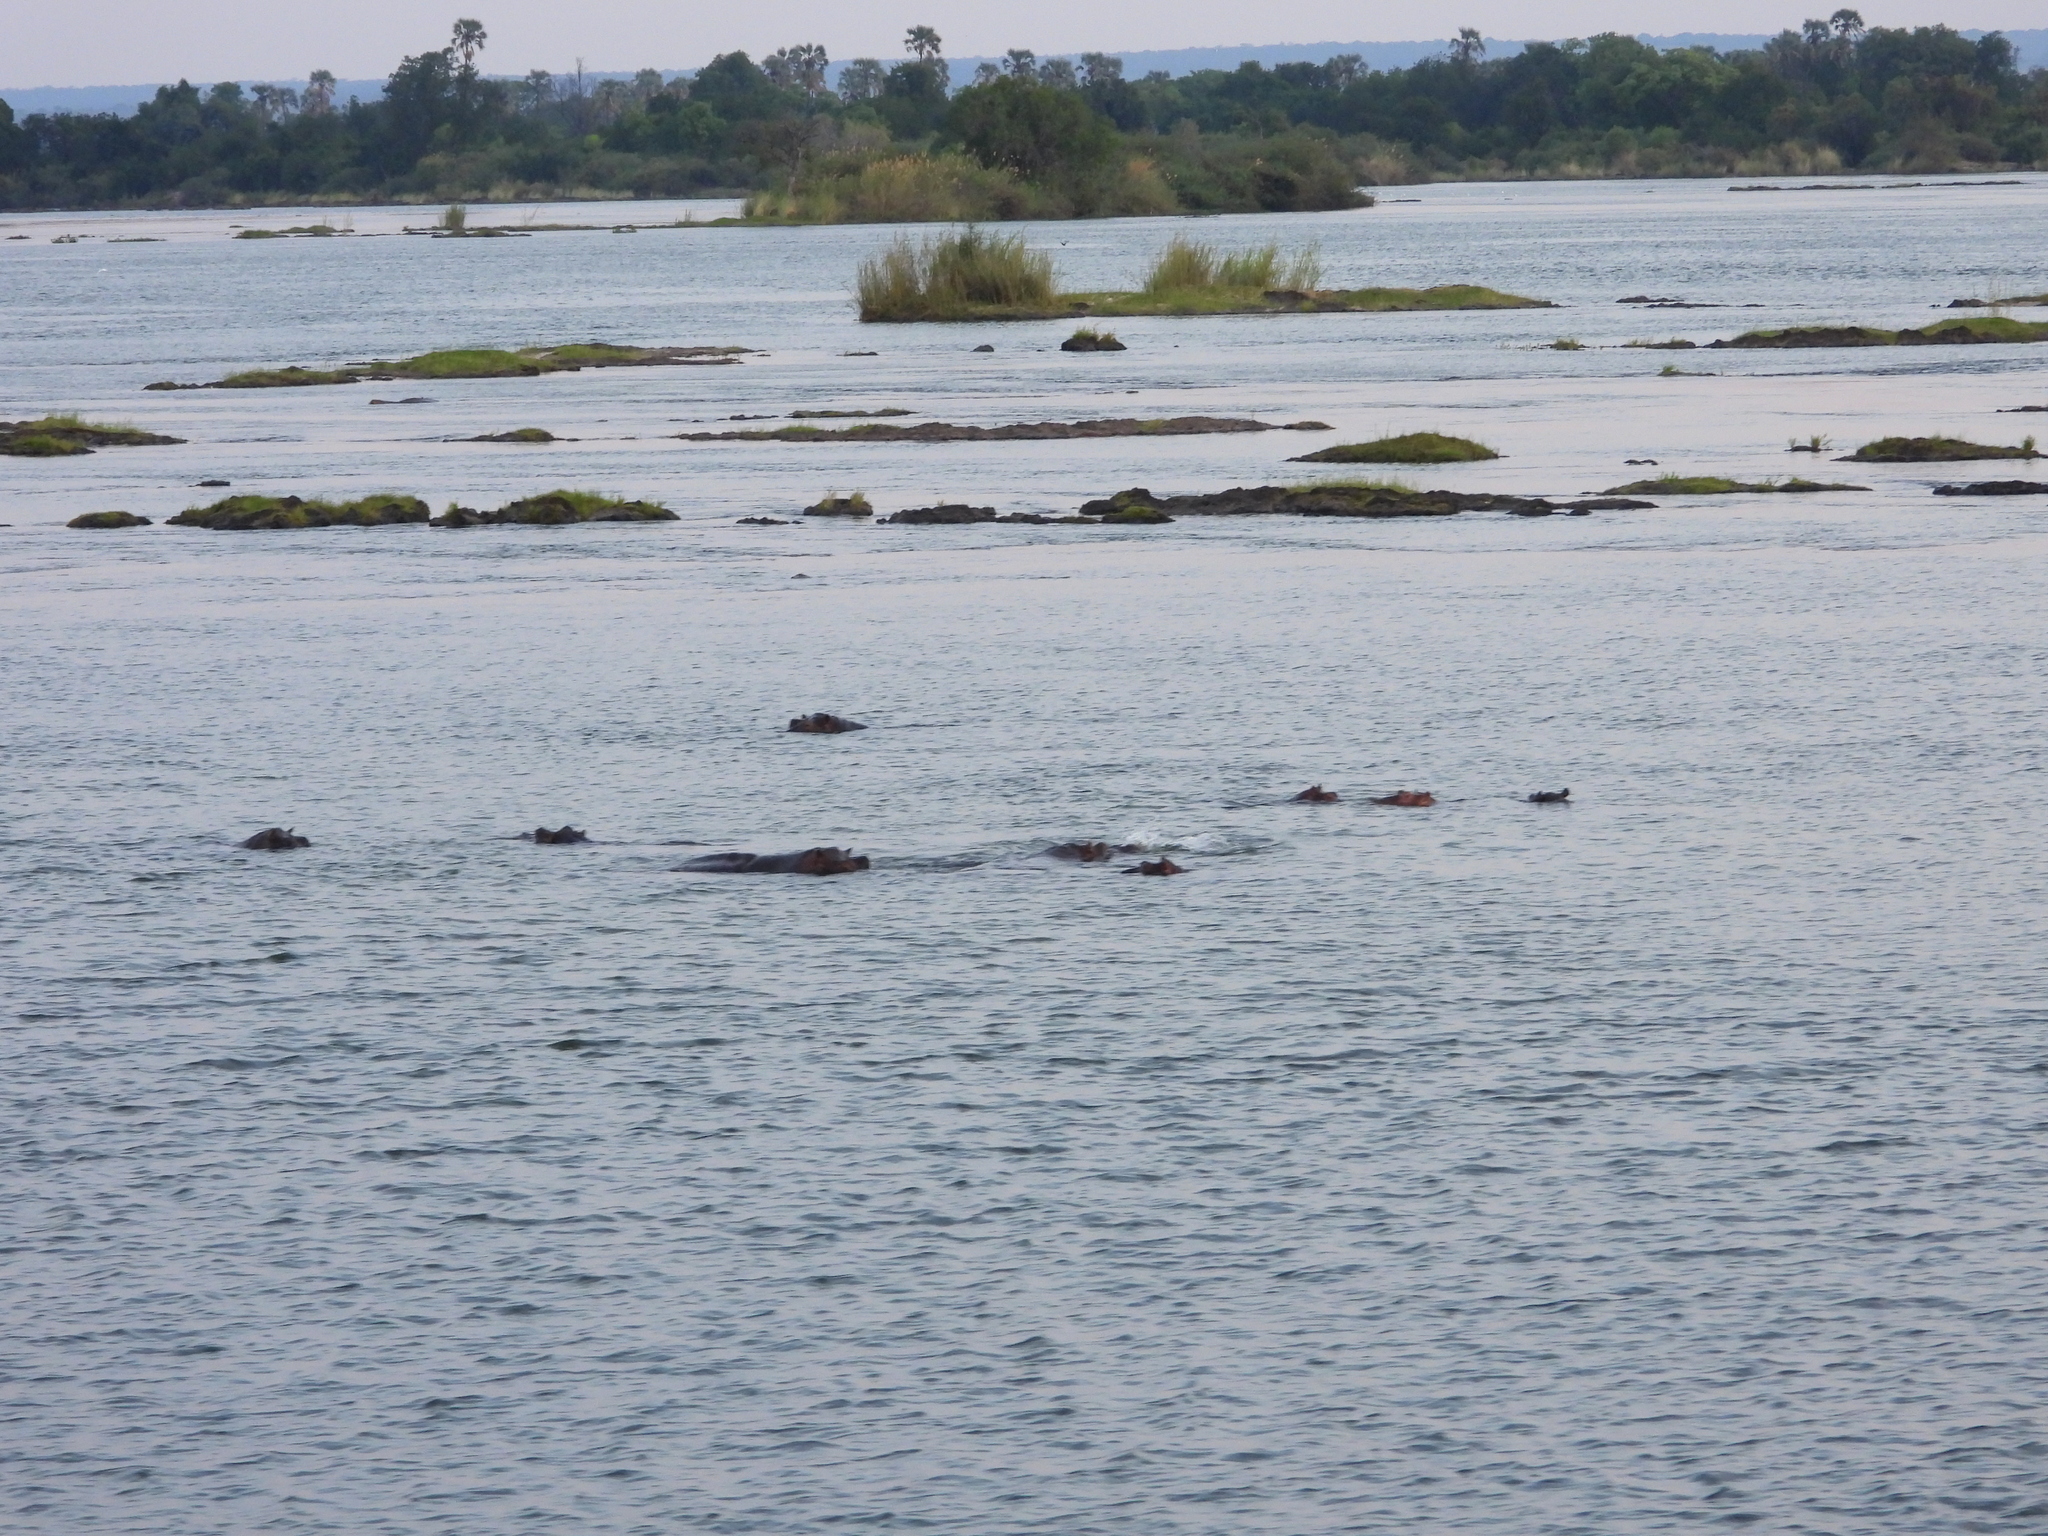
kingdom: Animalia
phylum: Chordata
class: Mammalia
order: Artiodactyla
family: Hippopotamidae
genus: Hippopotamus
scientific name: Hippopotamus amphibius
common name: Common hippopotamus
